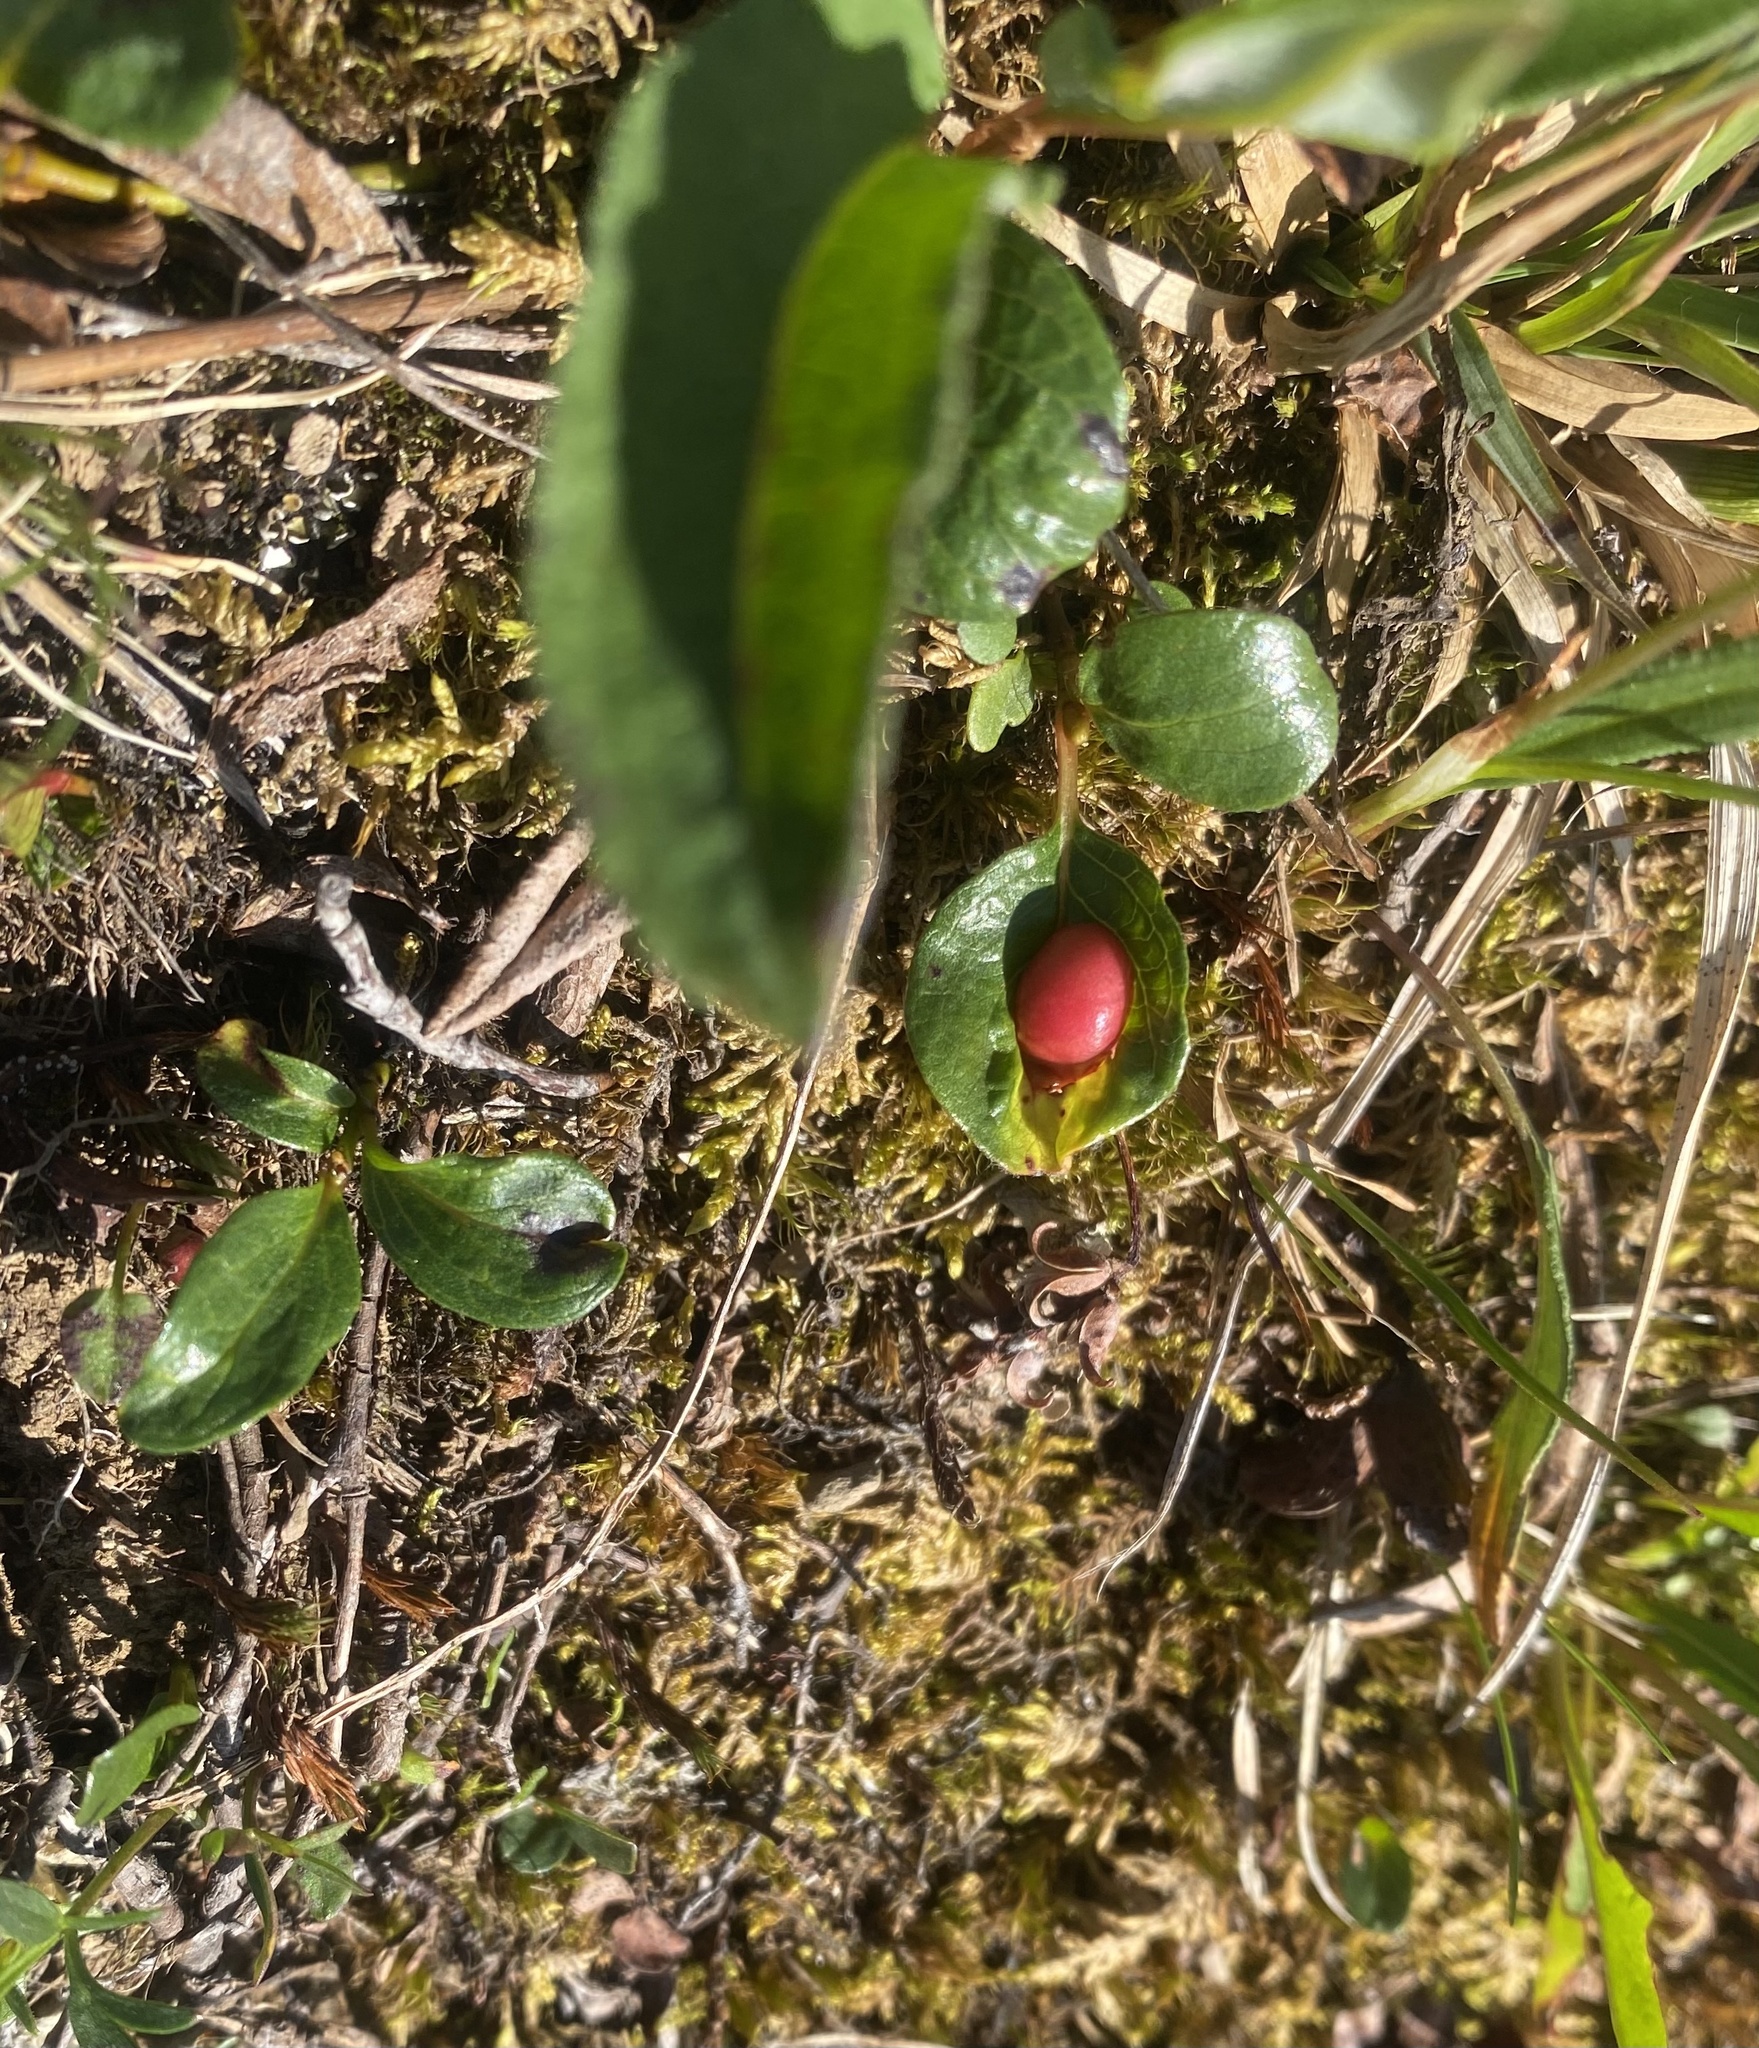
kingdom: Plantae
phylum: Tracheophyta
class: Magnoliopsida
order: Malpighiales
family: Salicaceae
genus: Salix
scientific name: Salix polaris
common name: Polar willow
